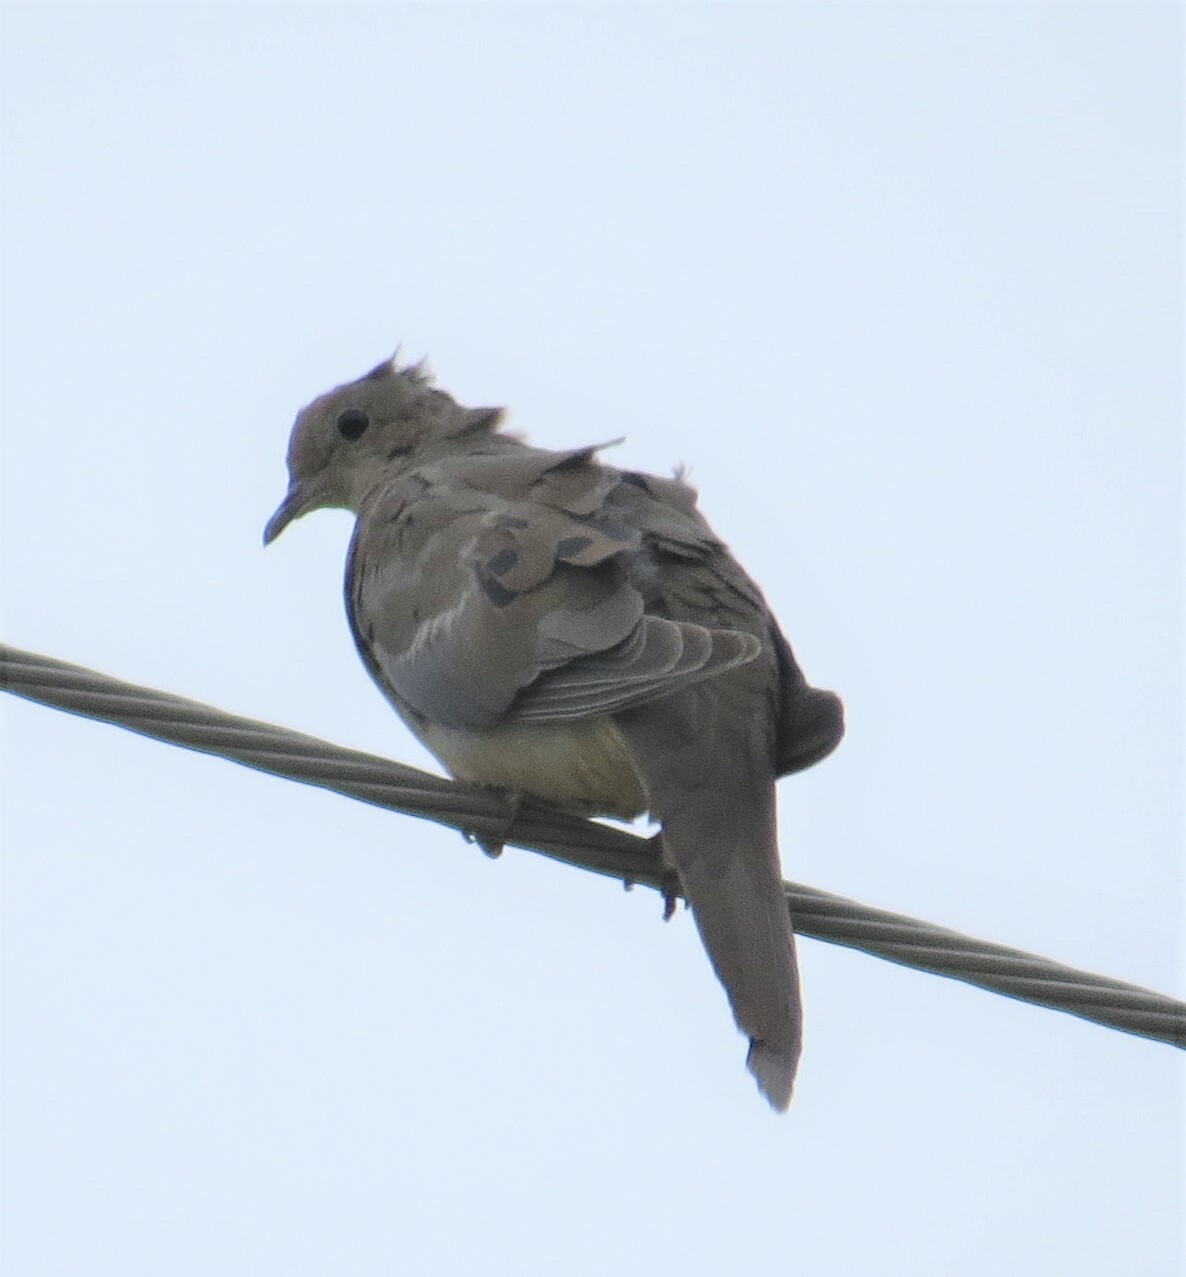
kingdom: Animalia
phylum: Chordata
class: Aves
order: Columbiformes
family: Columbidae
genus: Zenaida
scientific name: Zenaida macroura
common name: Mourning dove
